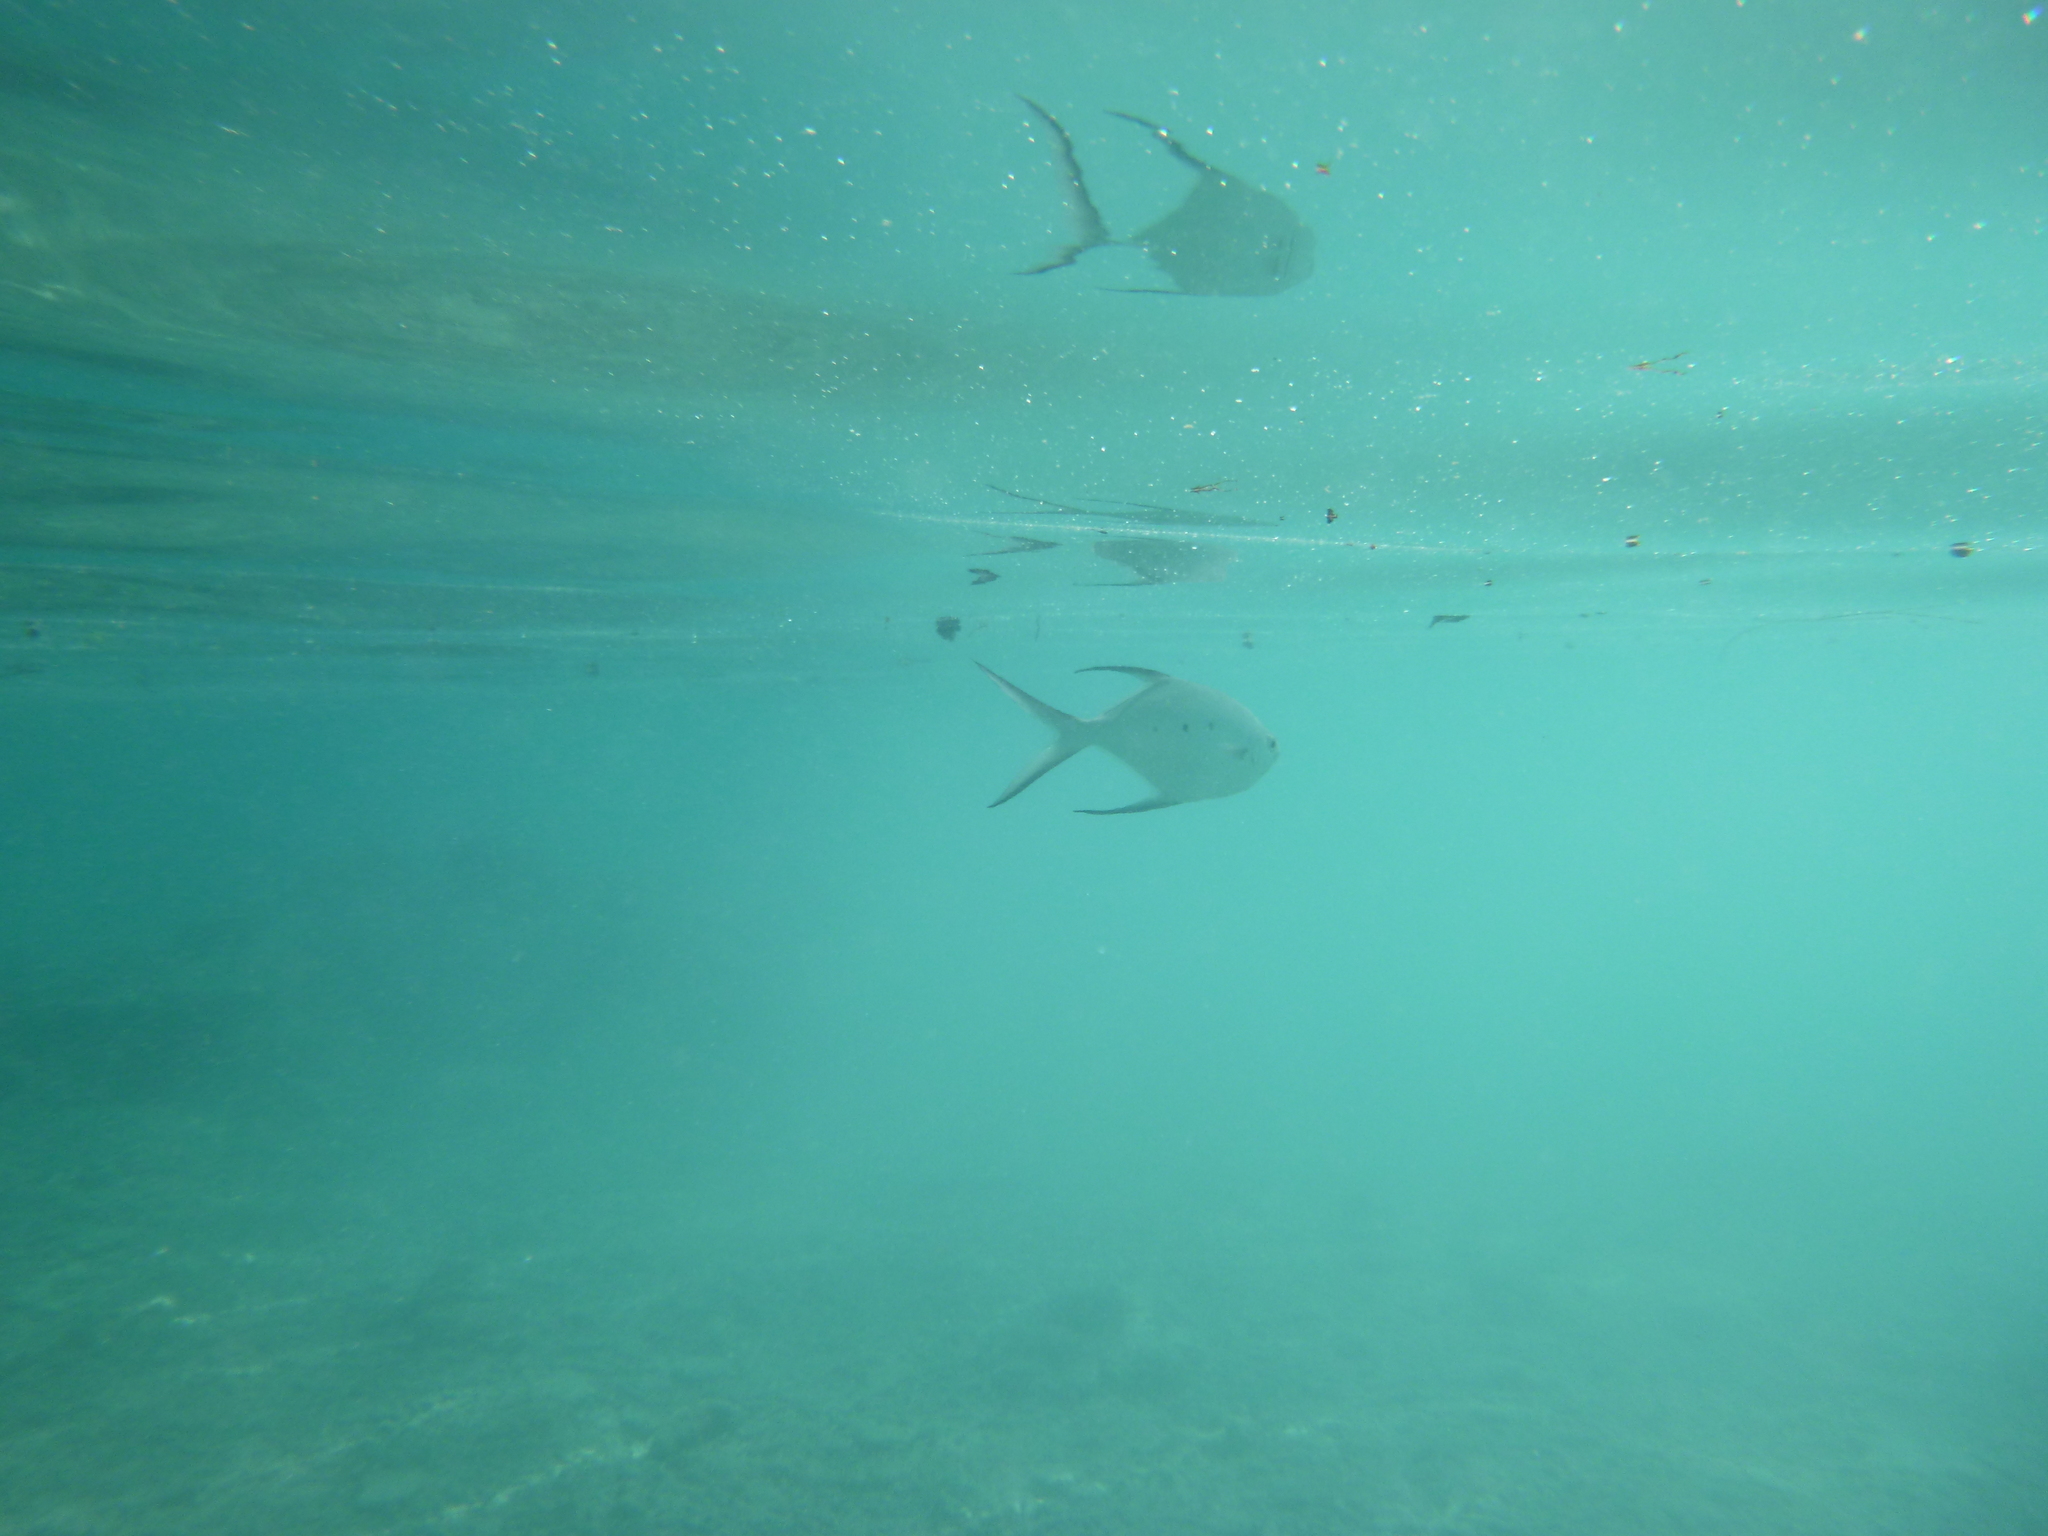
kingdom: Animalia
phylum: Chordata
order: Perciformes
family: Carangidae
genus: Trachinotus
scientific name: Trachinotus baillonii
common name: Smallspotted dart
